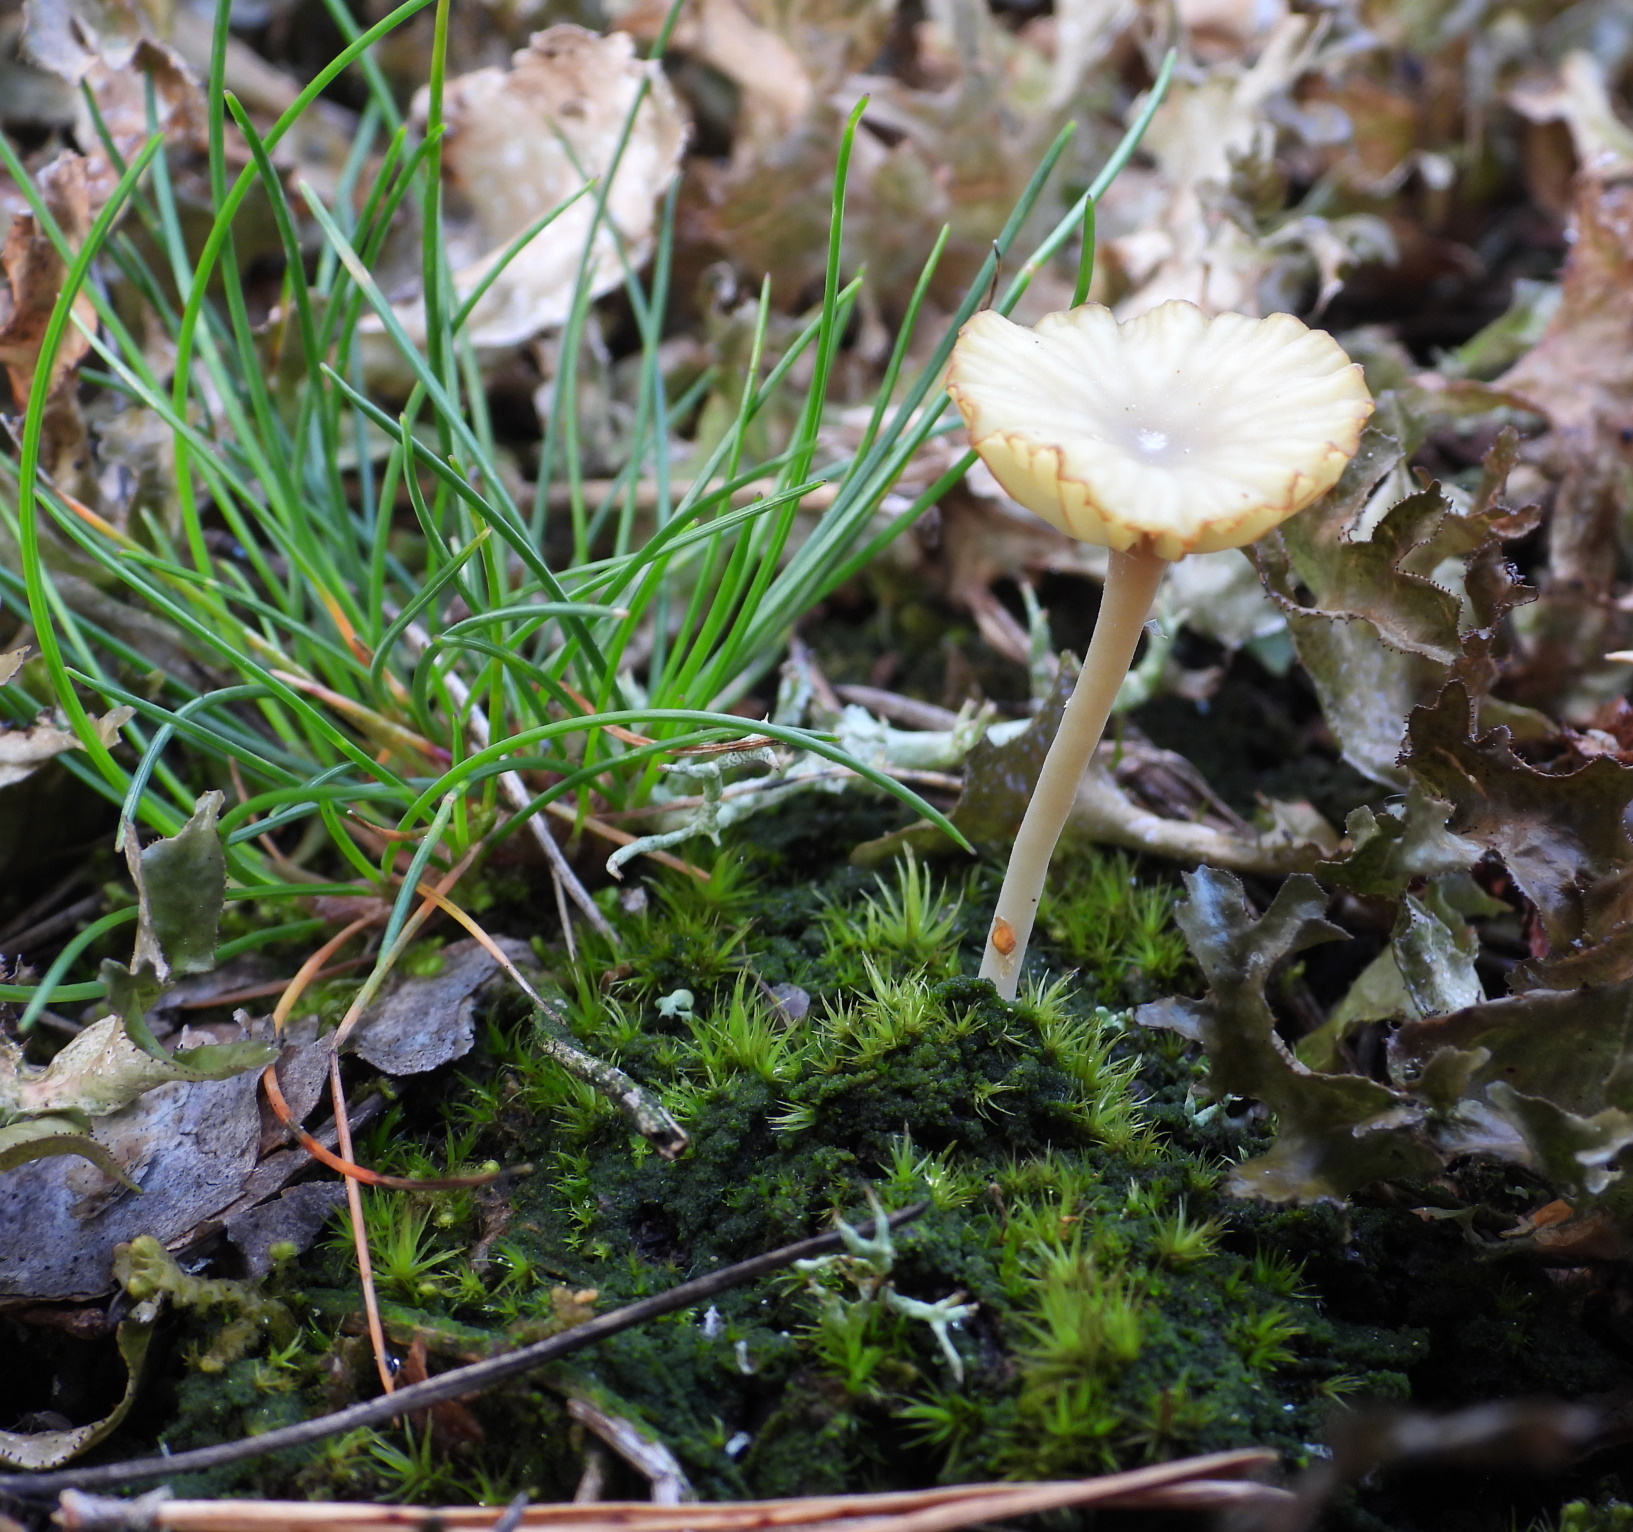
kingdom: Fungi
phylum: Basidiomycota
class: Agaricomycetes
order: Agaricales
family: Hygrophoraceae
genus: Lichenomphalia
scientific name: Lichenomphalia
